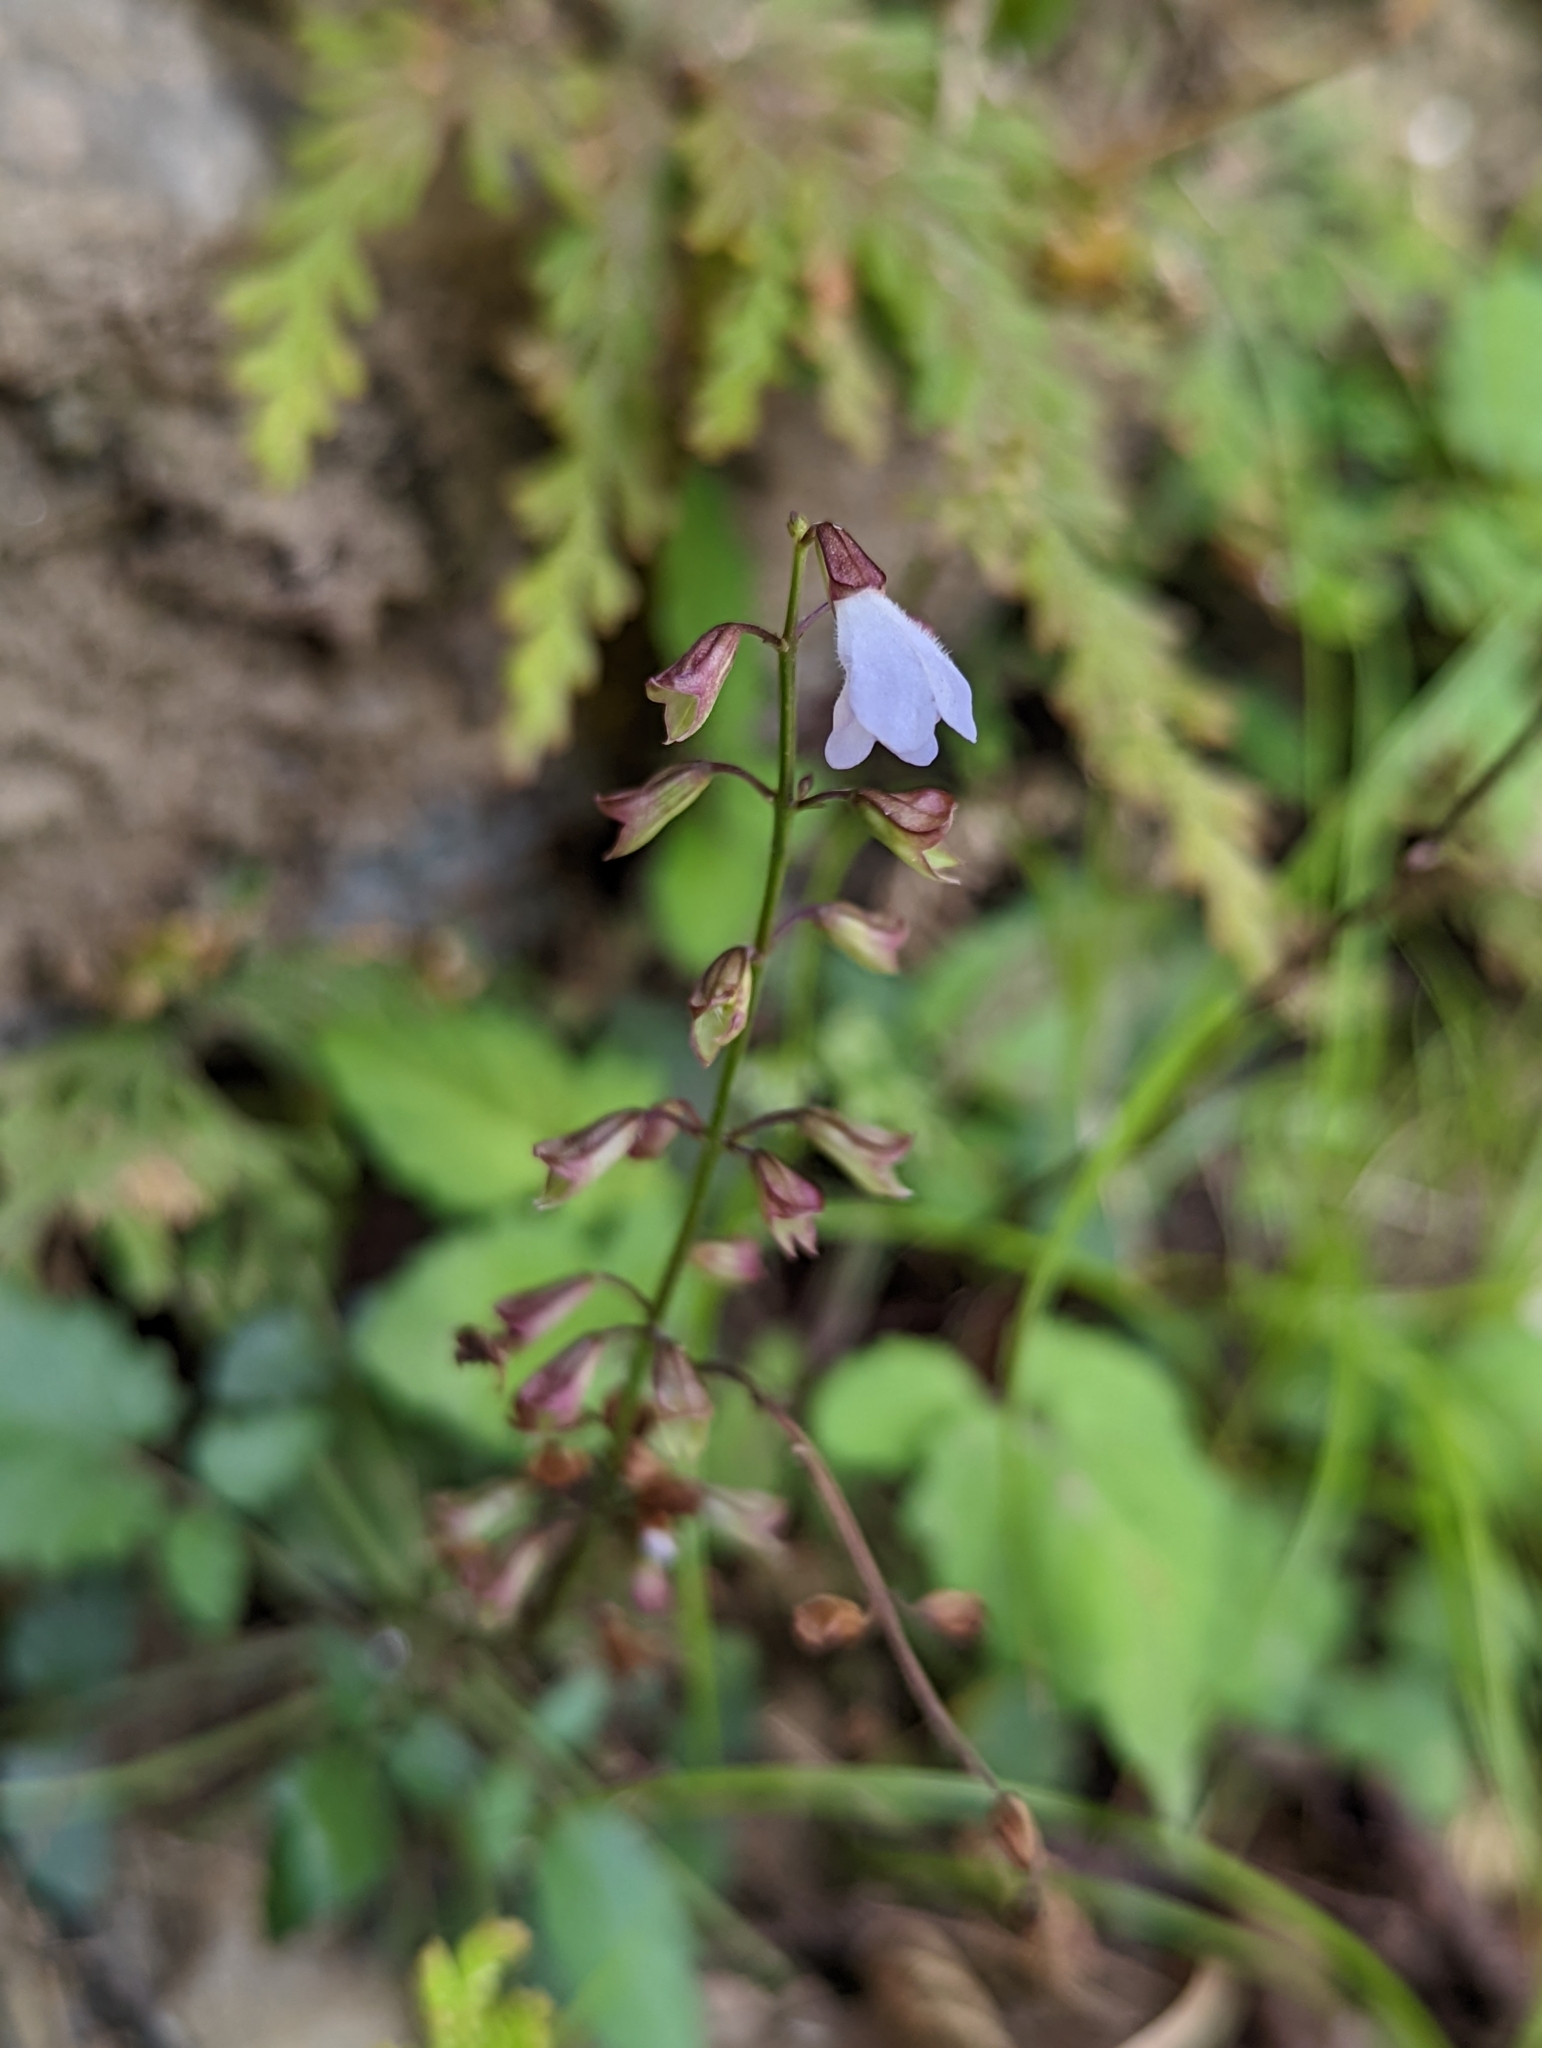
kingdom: Plantae
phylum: Tracheophyta
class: Magnoliopsida
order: Lamiales
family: Lamiaceae
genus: Salvia
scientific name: Salvia hayatae
